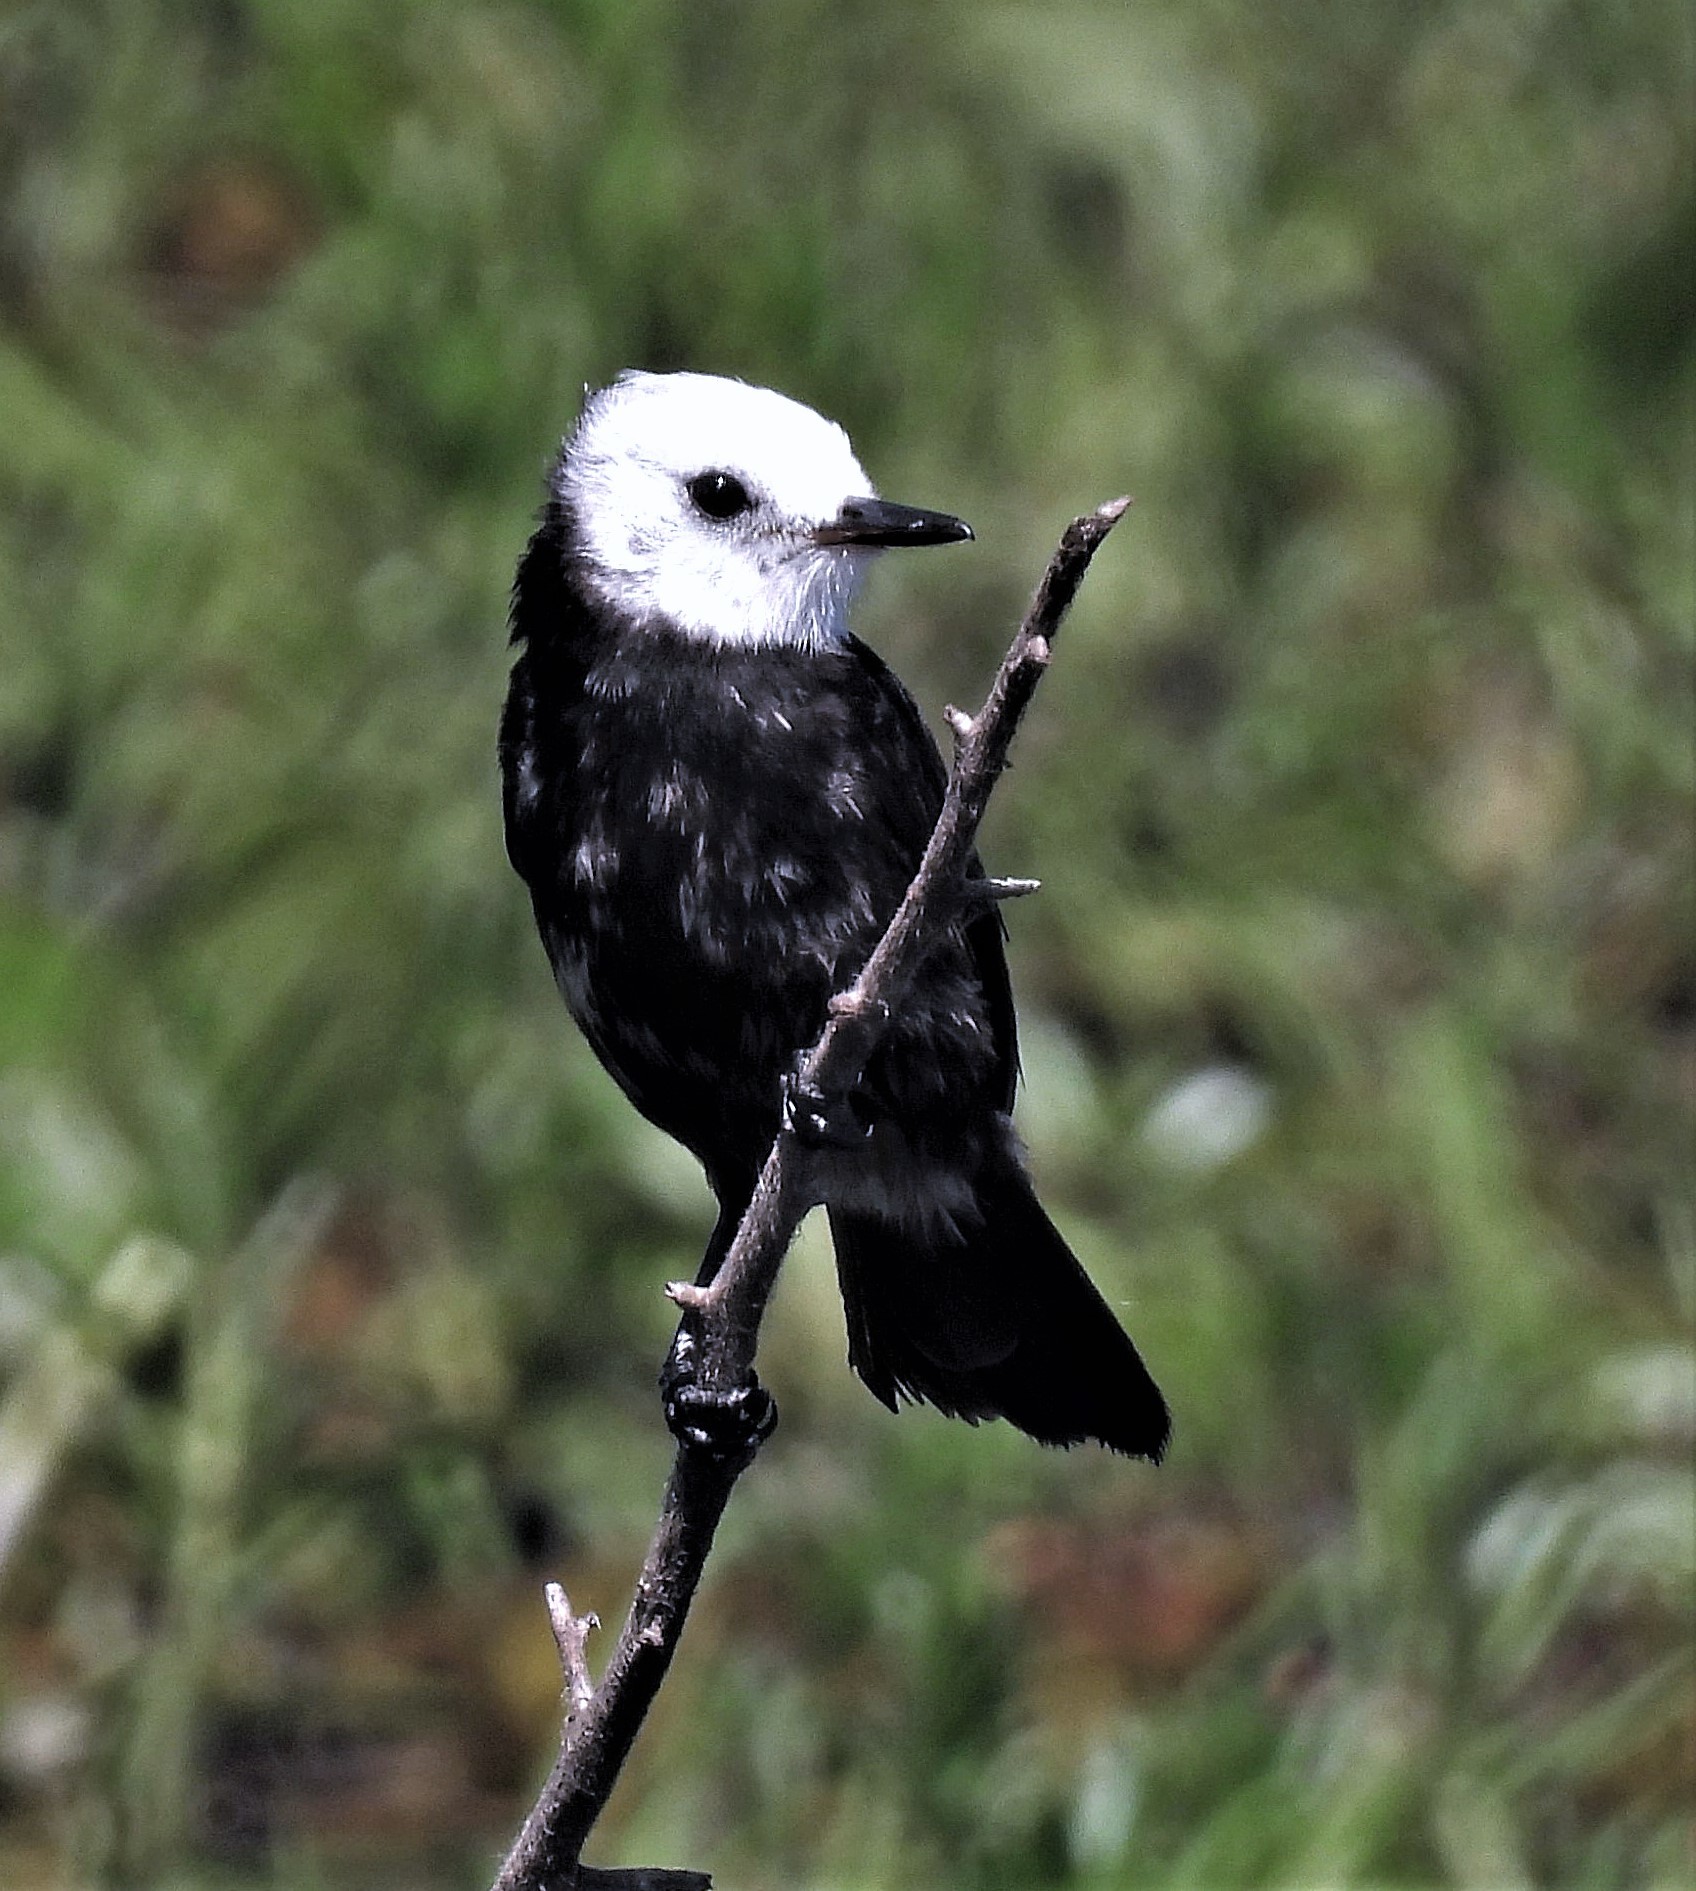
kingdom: Animalia
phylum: Chordata
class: Aves
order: Passeriformes
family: Tyrannidae
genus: Arundinicola
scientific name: Arundinicola leucocephala
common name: White-headed marsh tyrant
